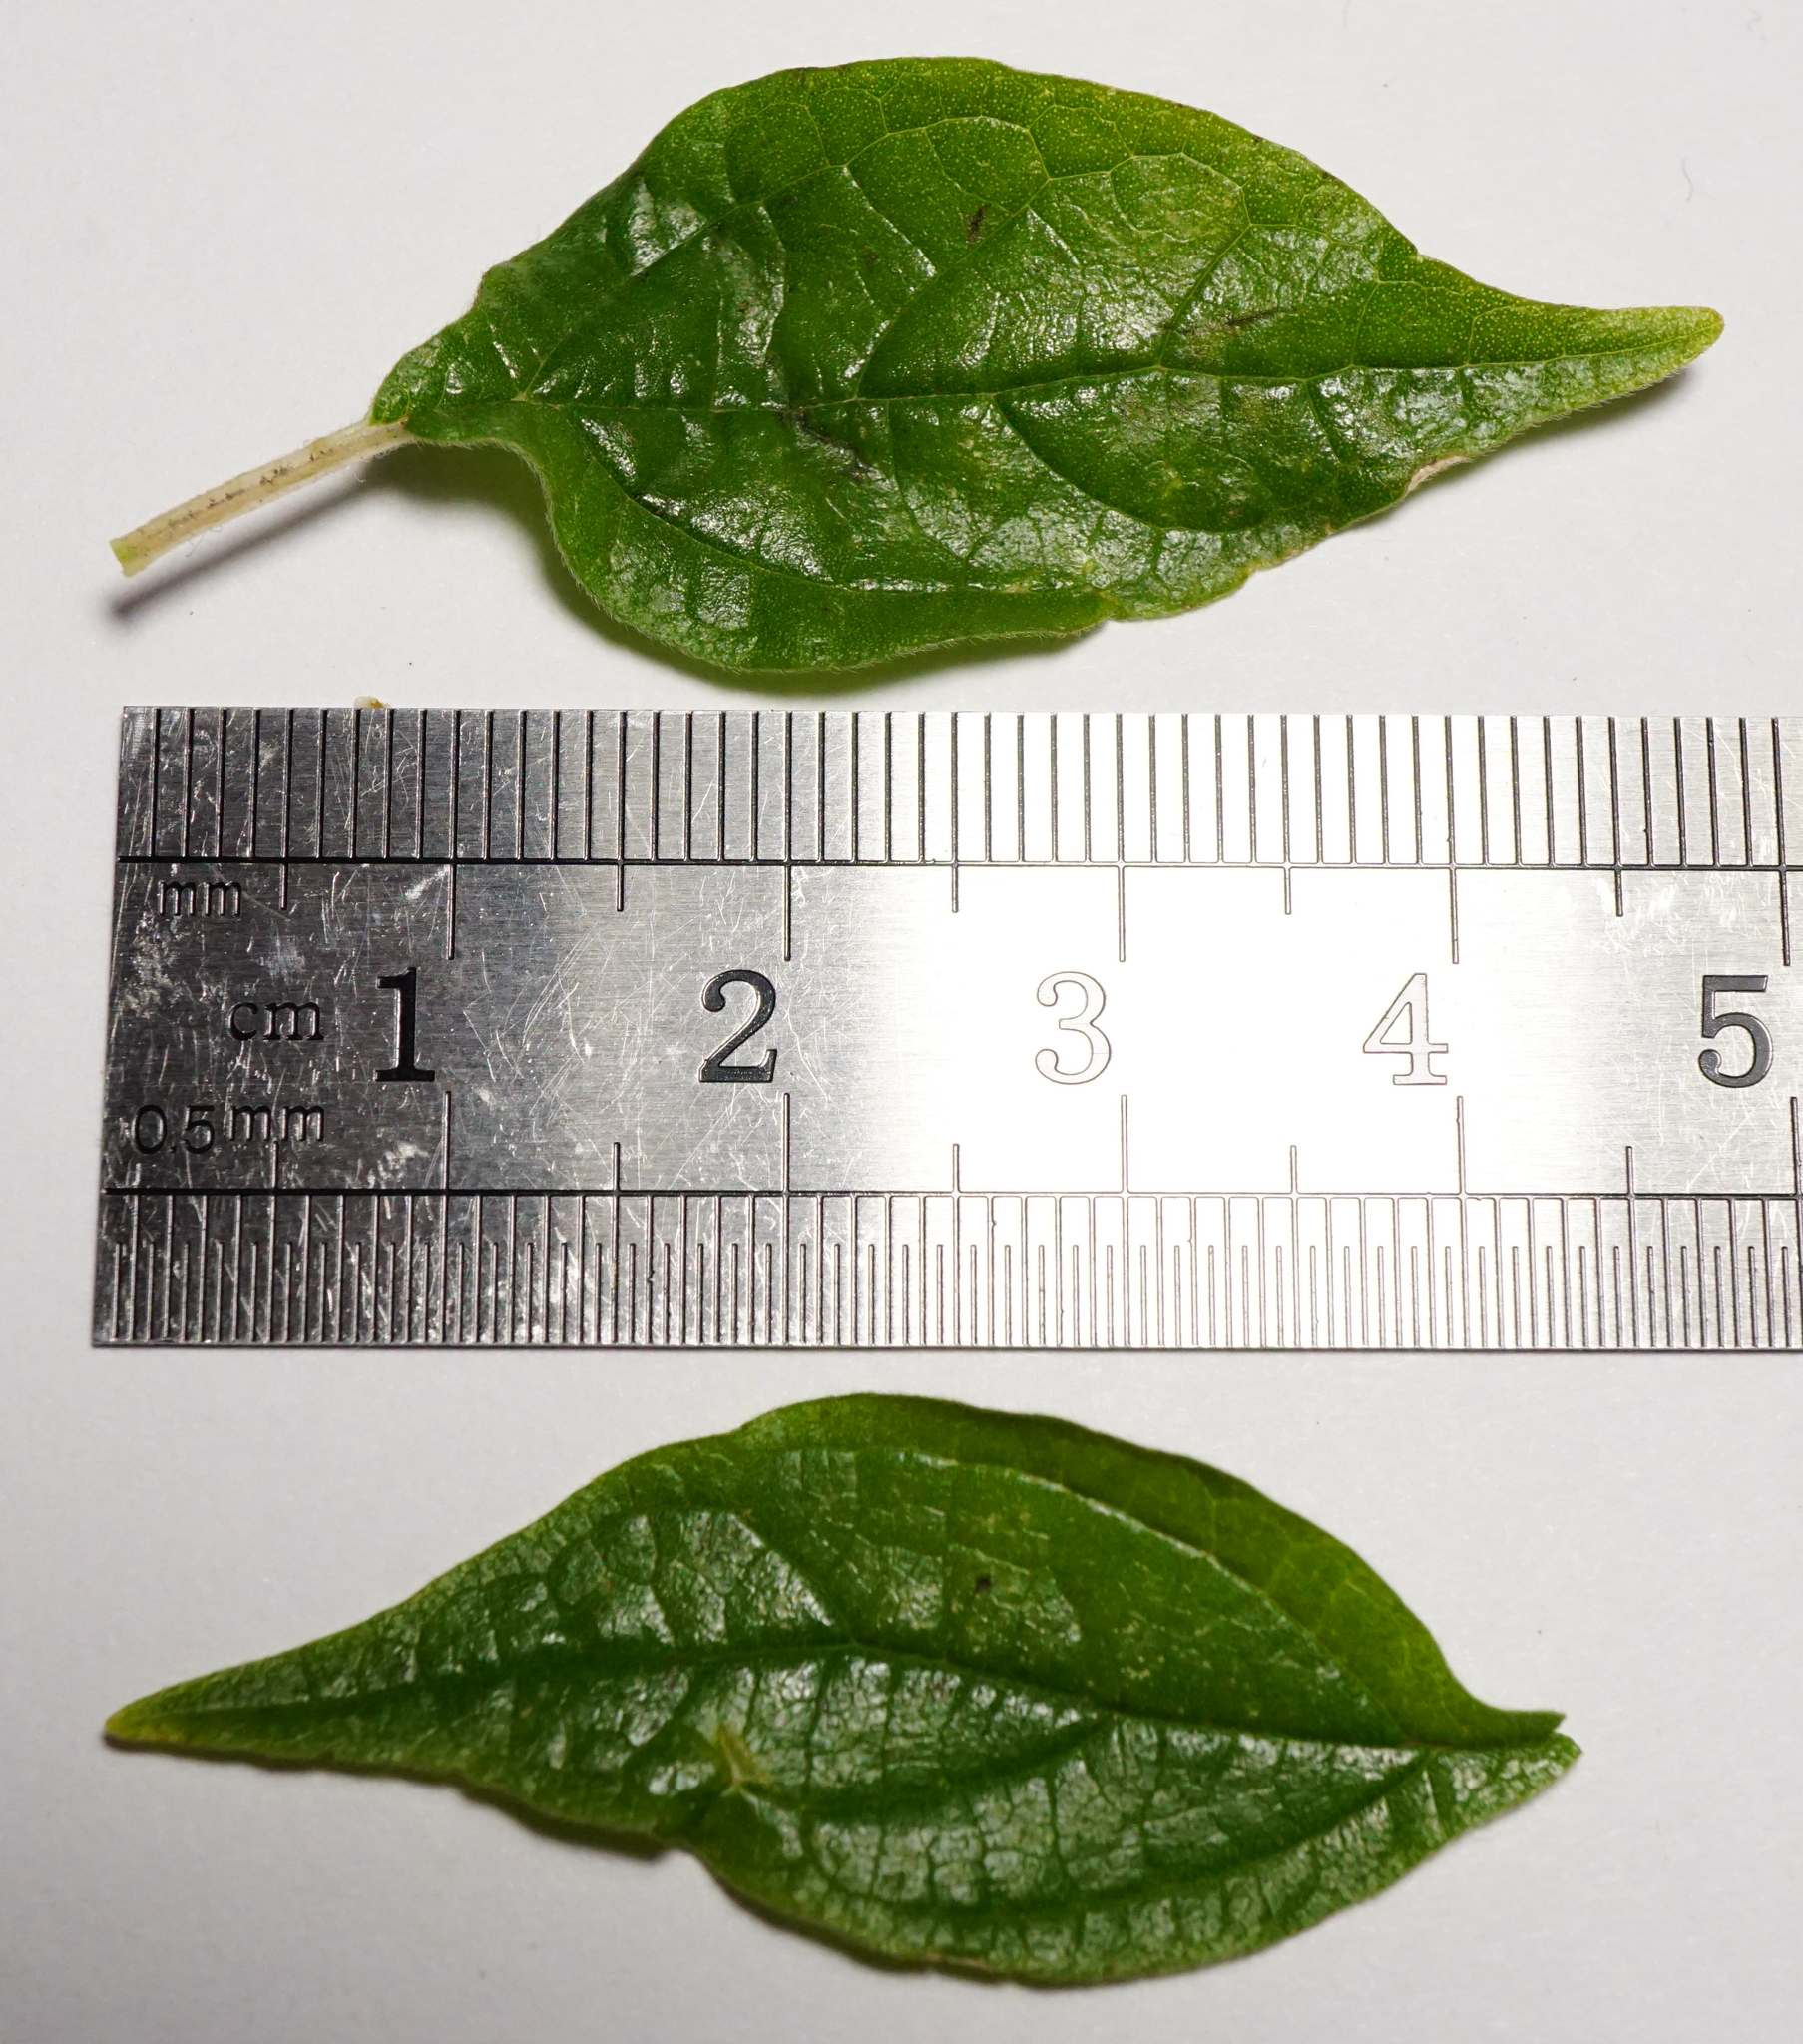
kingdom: Plantae
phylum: Tracheophyta
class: Magnoliopsida
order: Rosales
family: Urticaceae
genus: Parietaria
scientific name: Parietaria judaica
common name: Pellitory-of-the-wall
